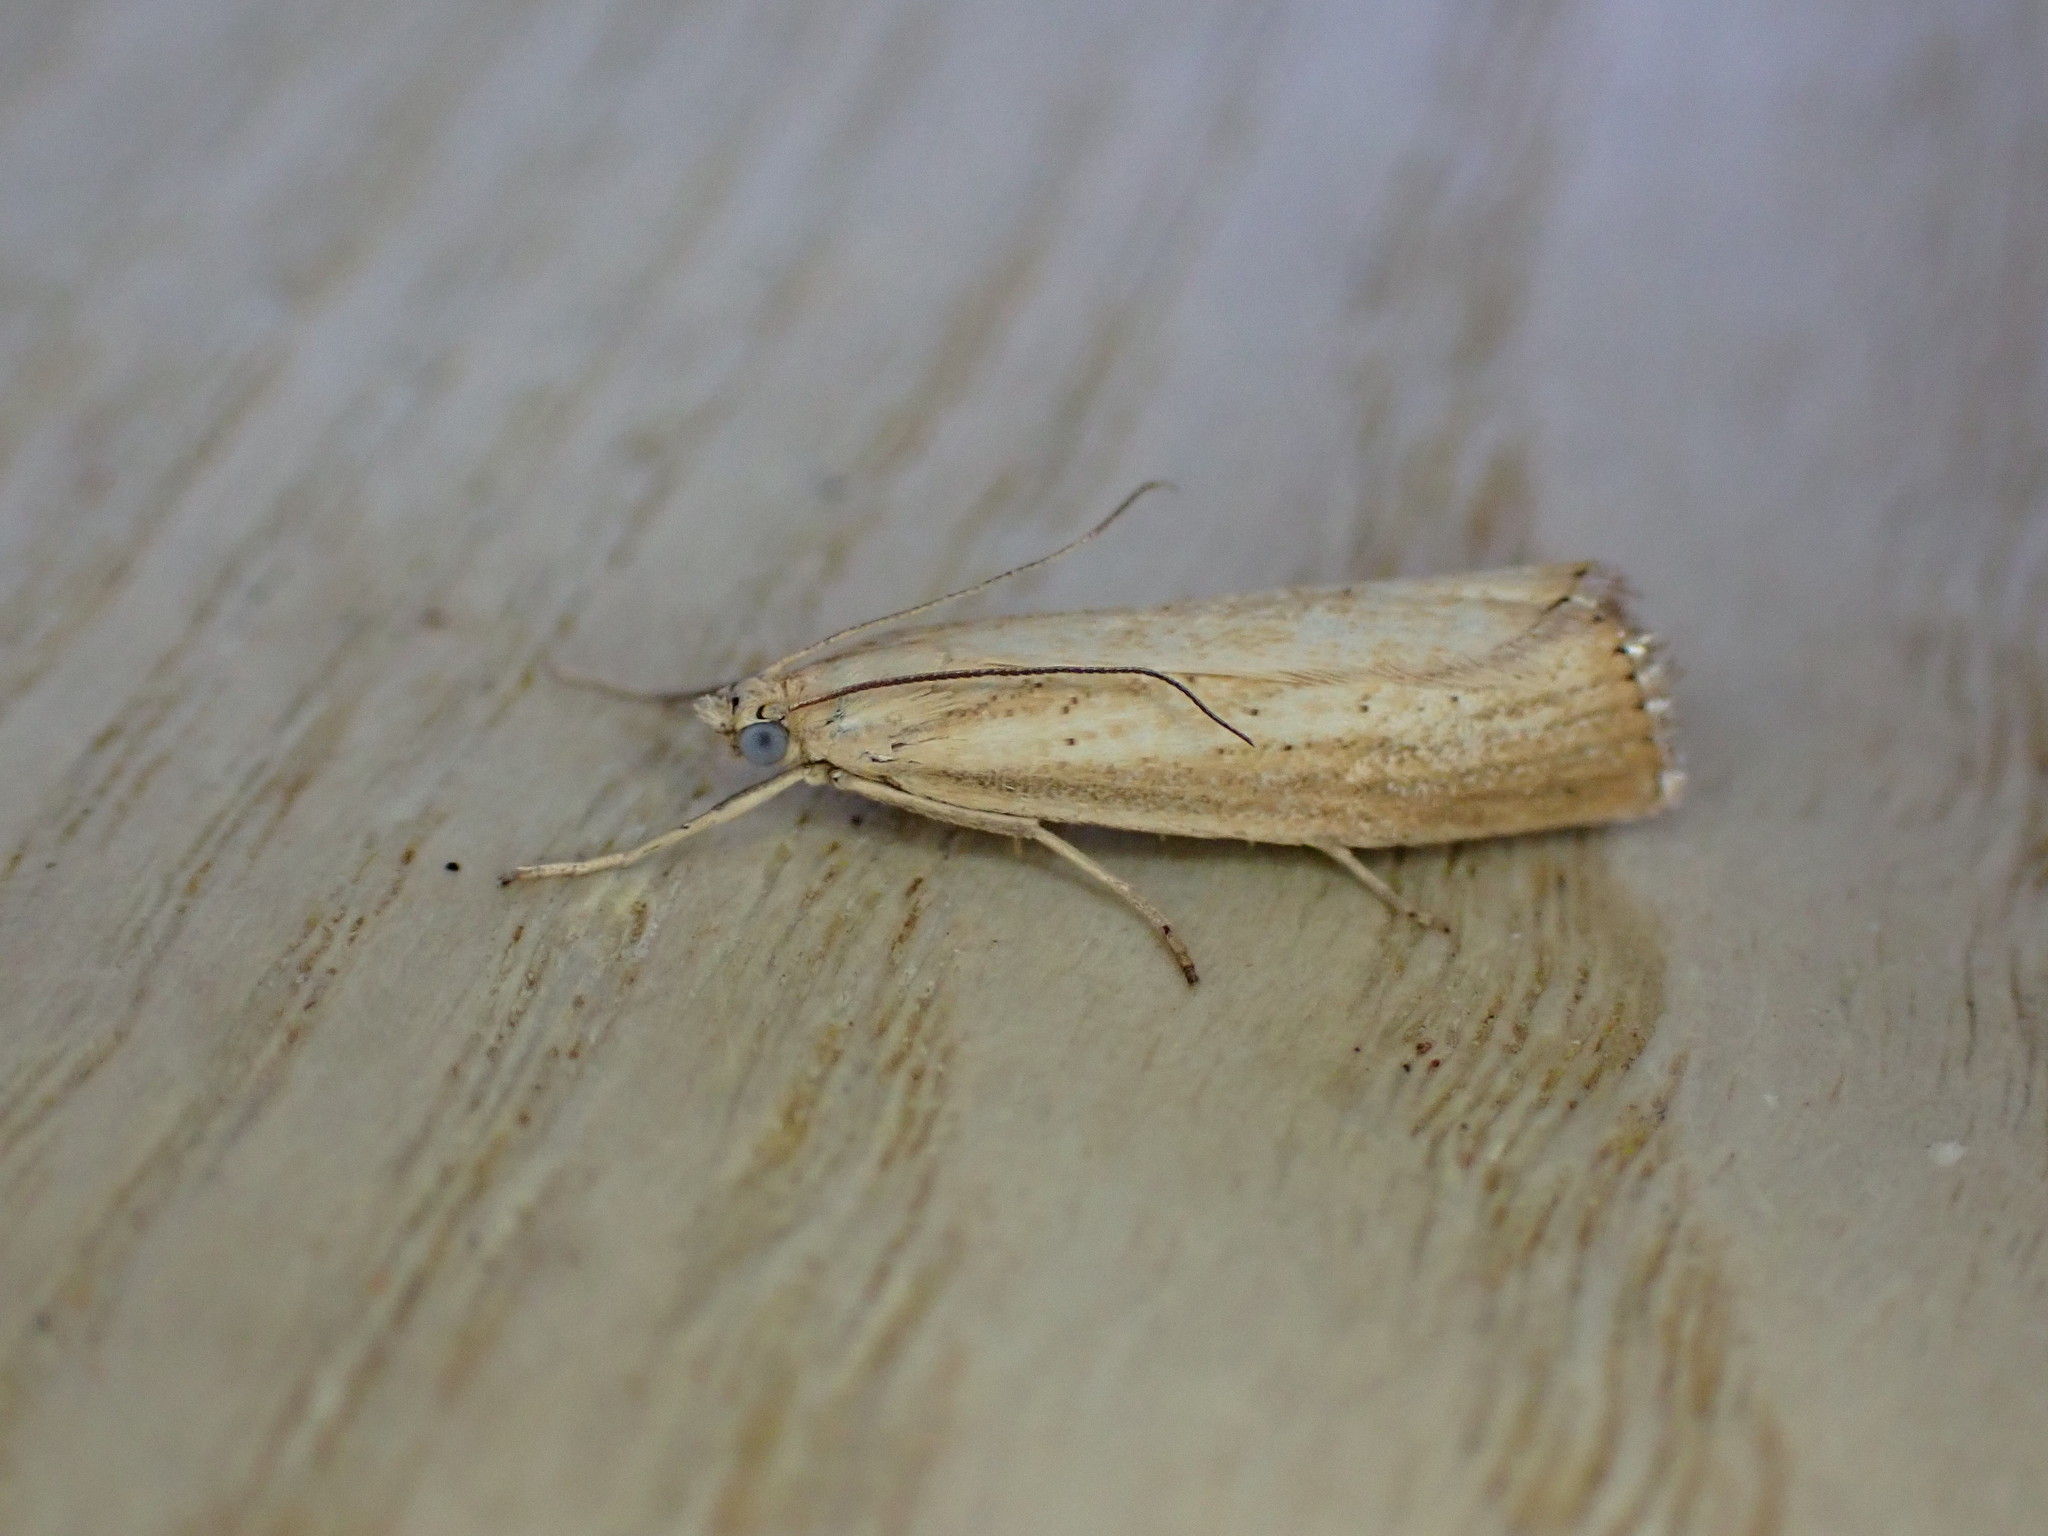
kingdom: Animalia
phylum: Arthropoda
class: Insecta
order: Lepidoptera
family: Crambidae
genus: Agriphila
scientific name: Agriphila straminella
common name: Straw grass-veneer
